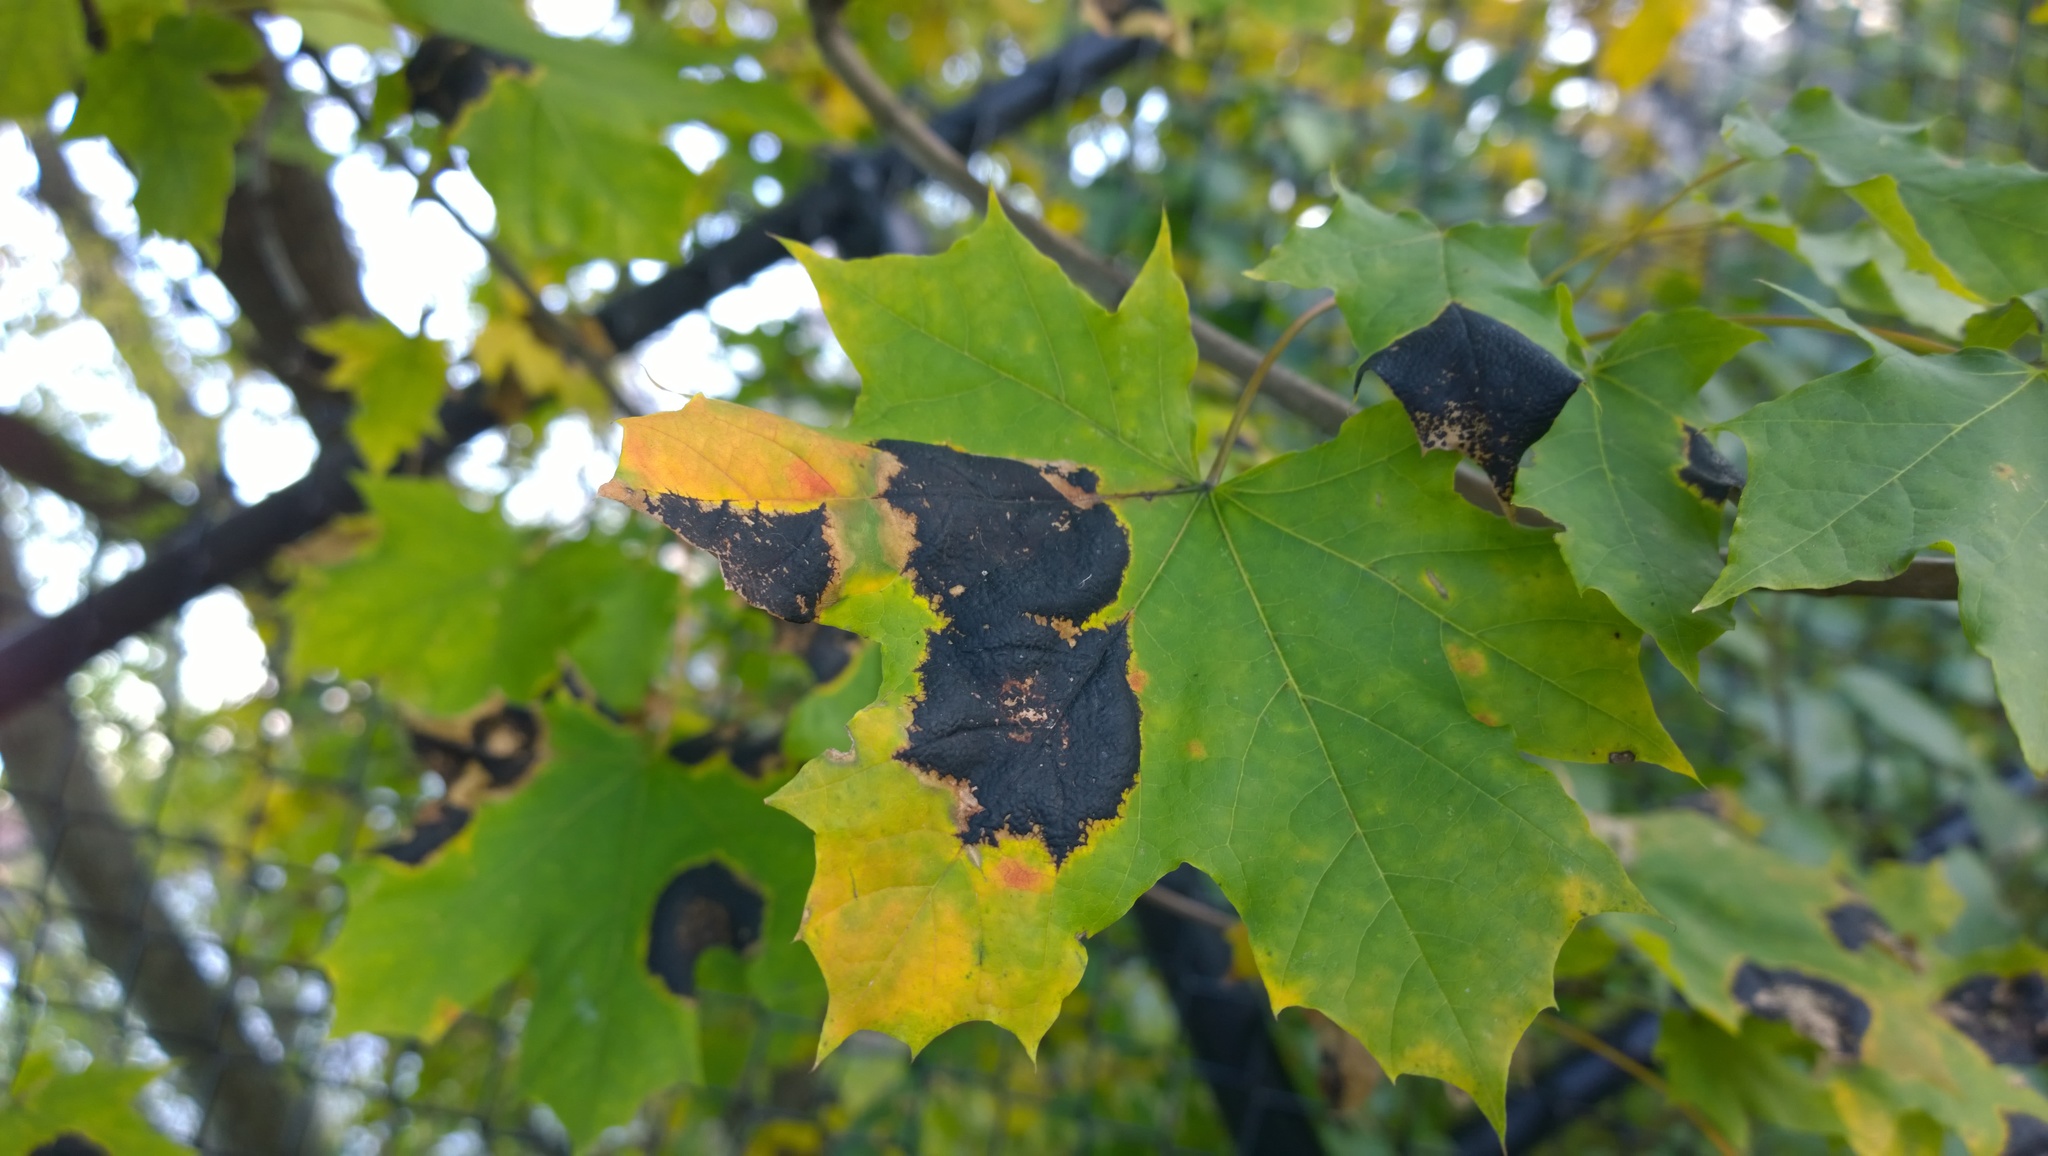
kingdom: Fungi
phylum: Ascomycota
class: Leotiomycetes
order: Rhytismatales
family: Rhytismataceae
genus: Rhytisma
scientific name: Rhytisma acerinum
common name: European tar spot
